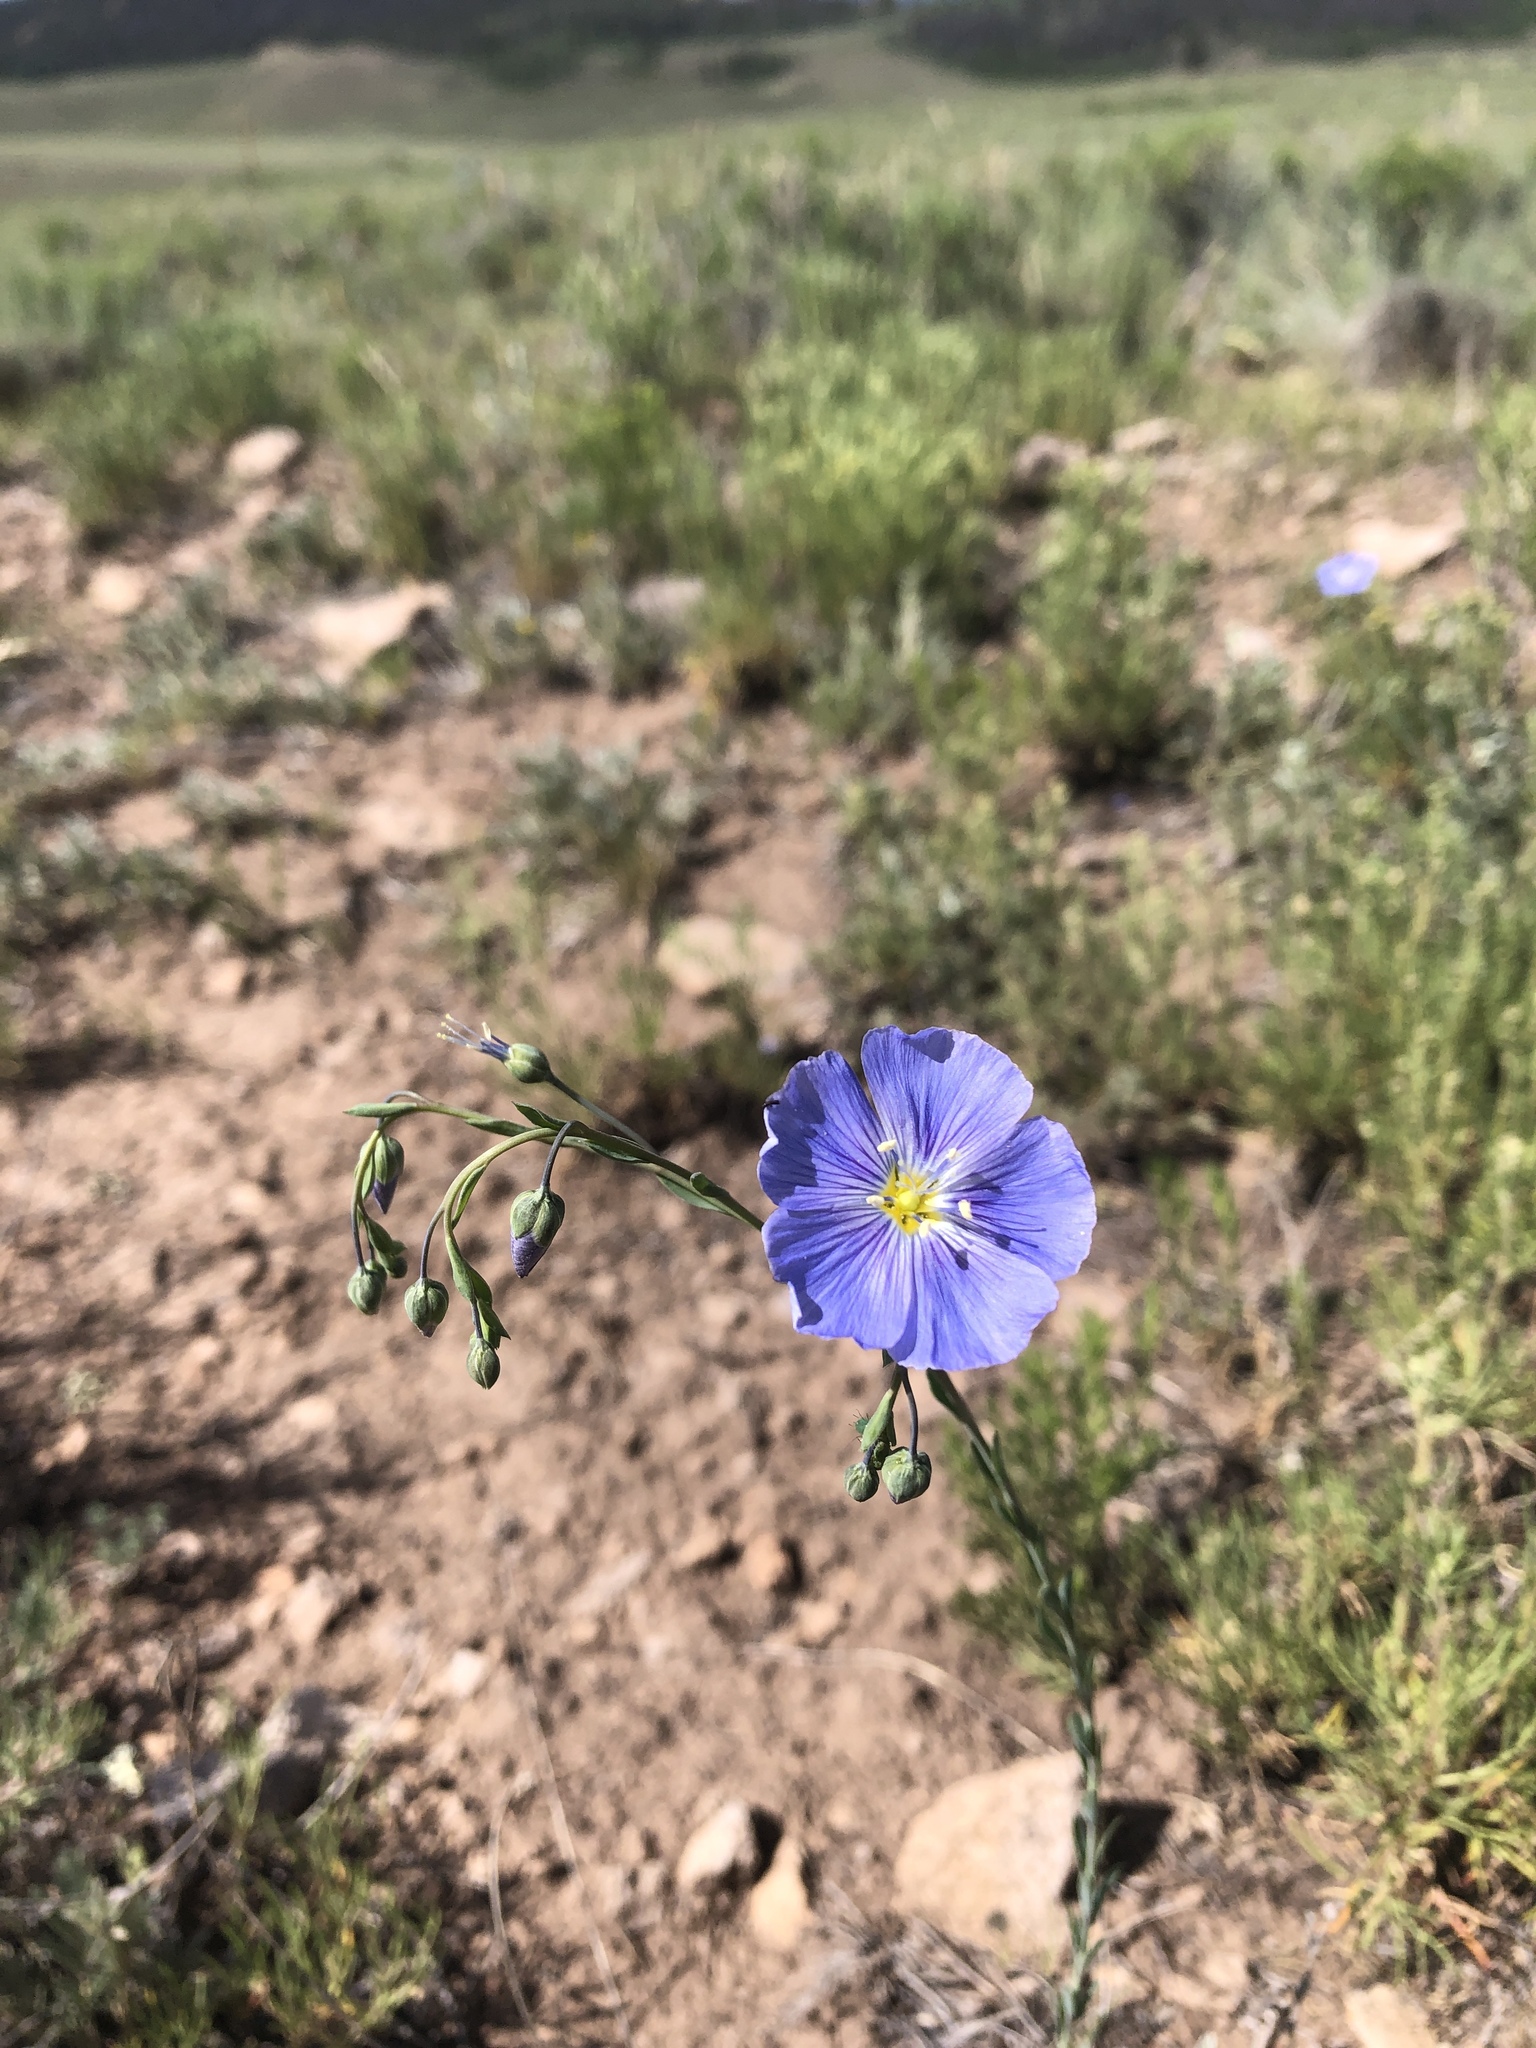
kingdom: Plantae
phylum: Tracheophyta
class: Magnoliopsida
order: Malpighiales
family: Linaceae
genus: Linum
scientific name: Linum lewisii
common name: Prairie flax
